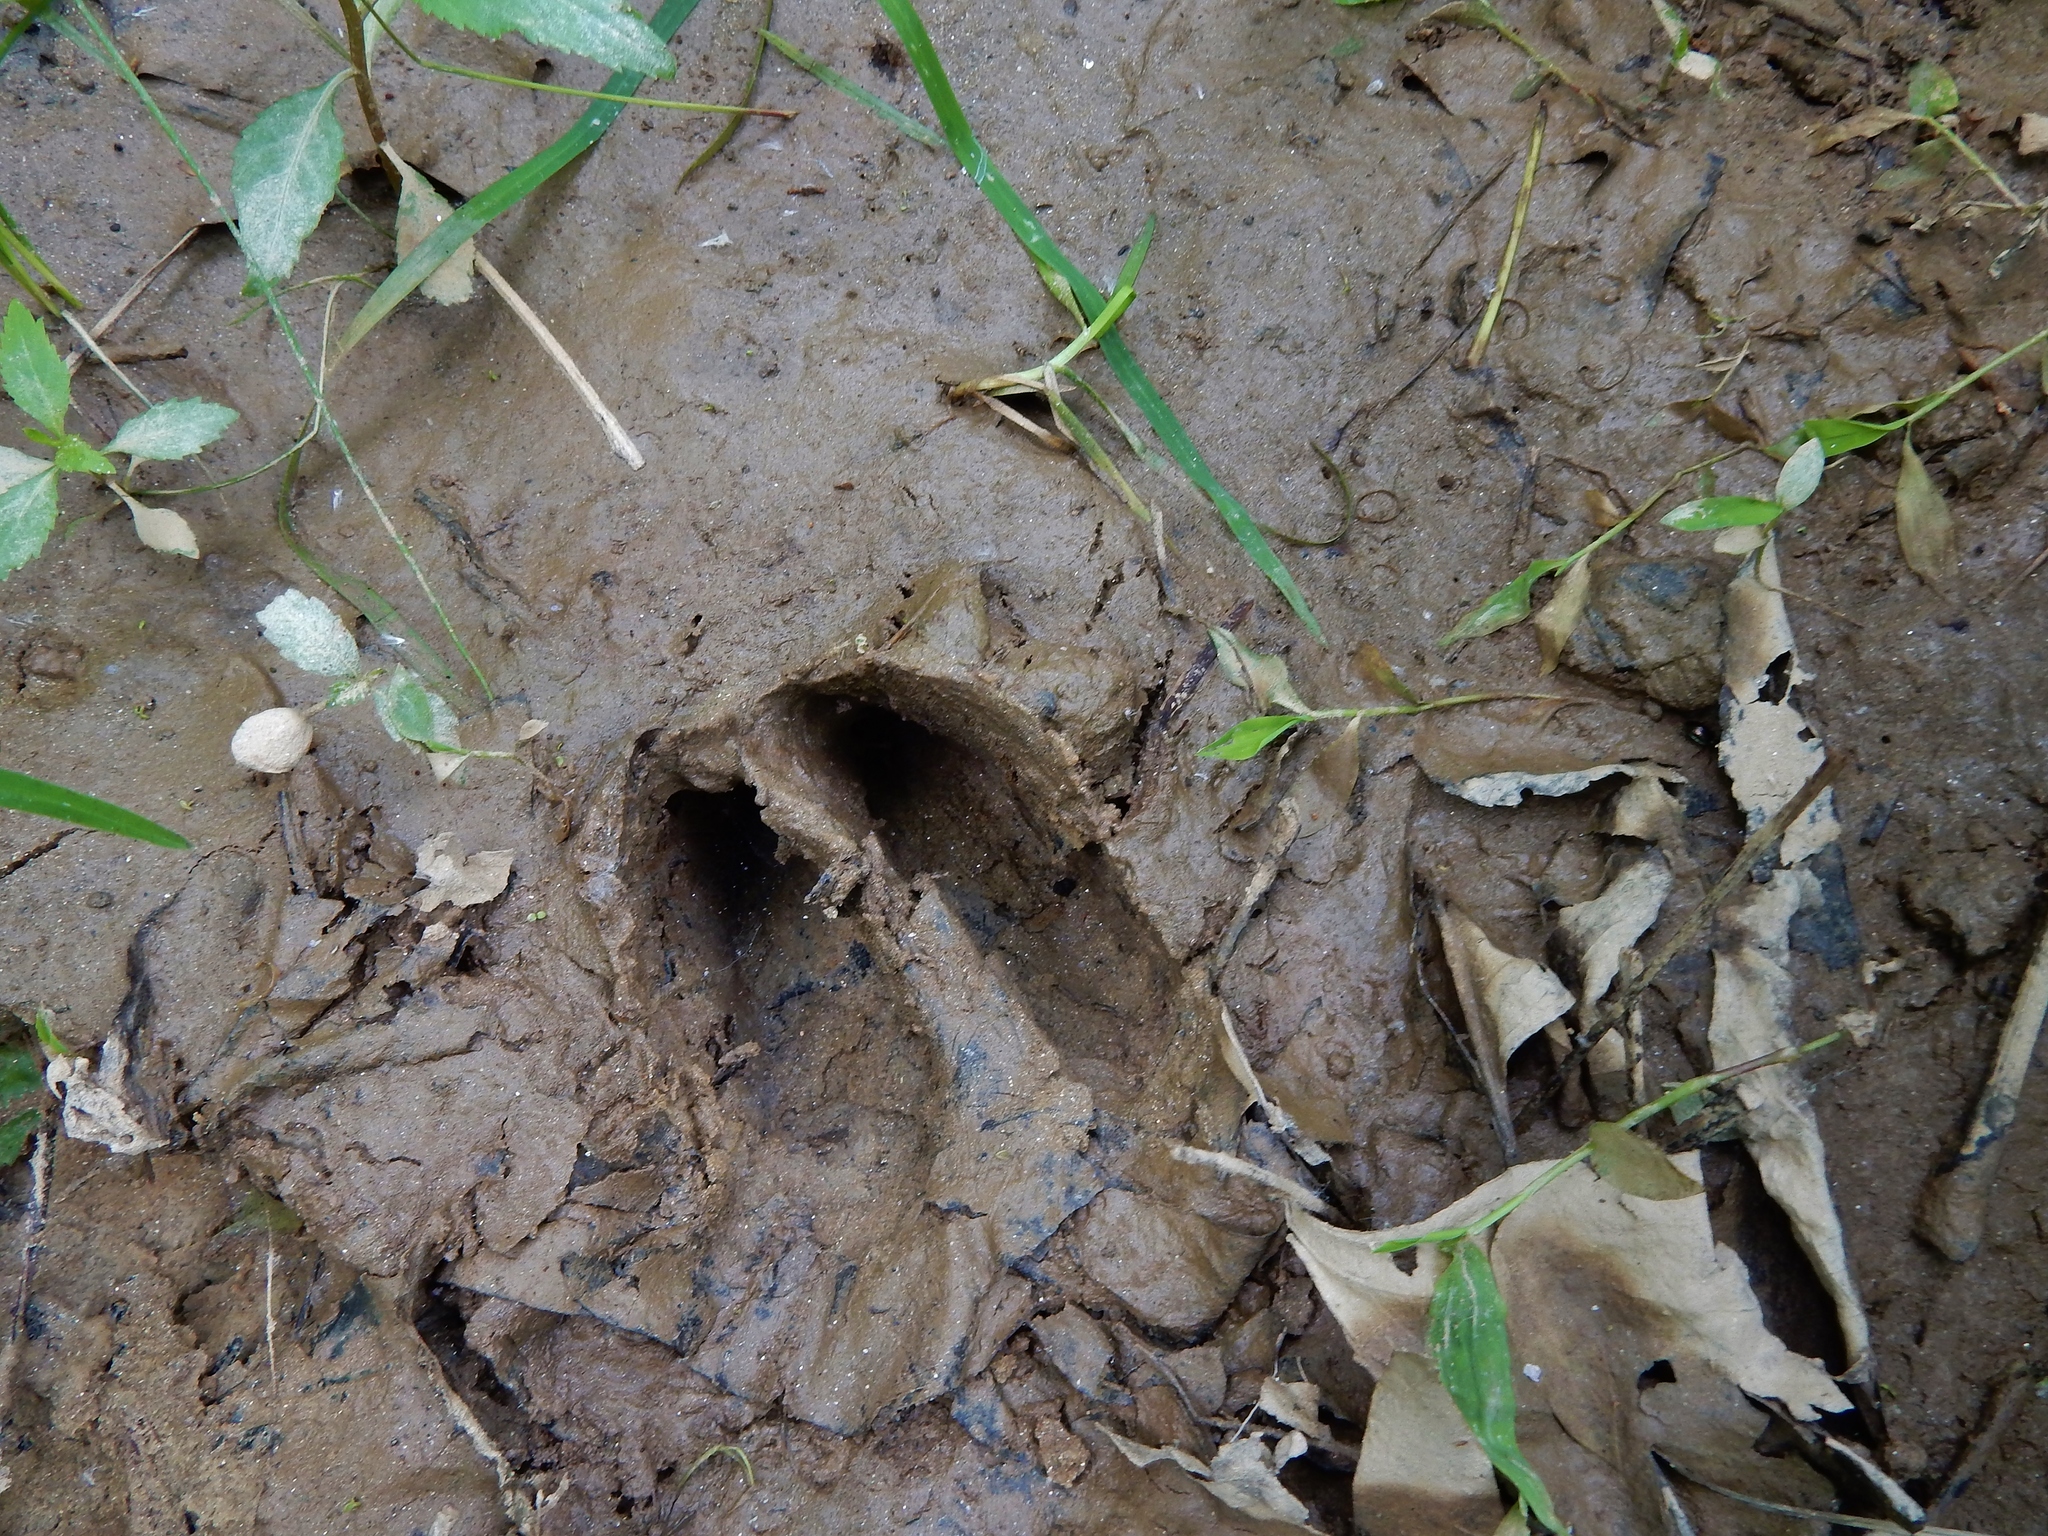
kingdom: Animalia
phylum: Chordata
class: Mammalia
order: Artiodactyla
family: Cervidae
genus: Odocoileus
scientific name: Odocoileus virginianus
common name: White-tailed deer
